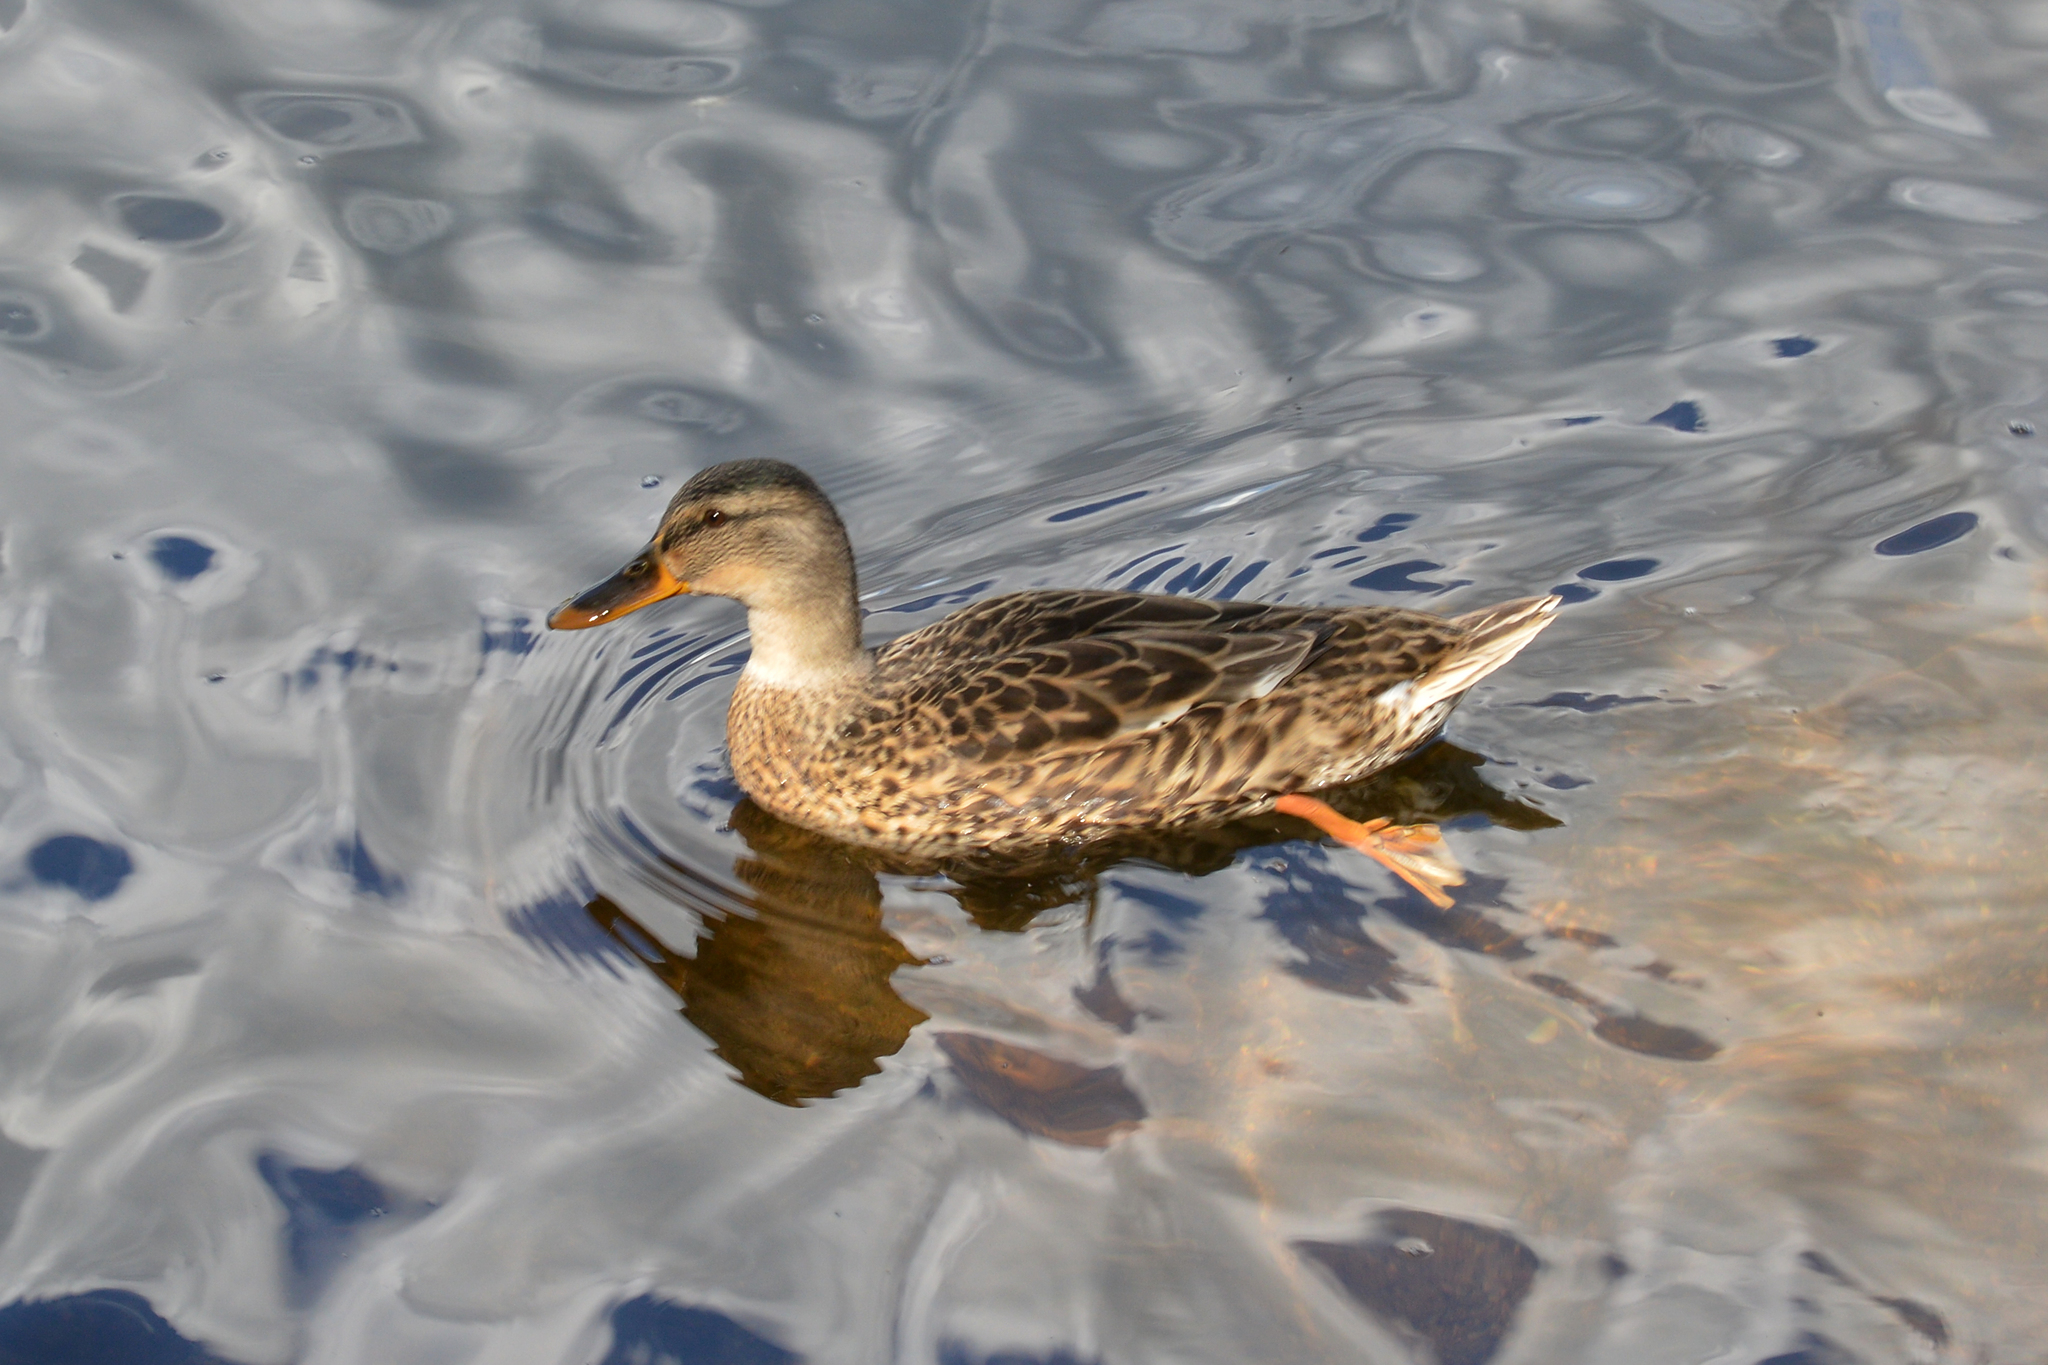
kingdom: Animalia
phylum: Chordata
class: Aves
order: Anseriformes
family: Anatidae
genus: Anas
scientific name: Anas platyrhynchos
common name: Mallard
